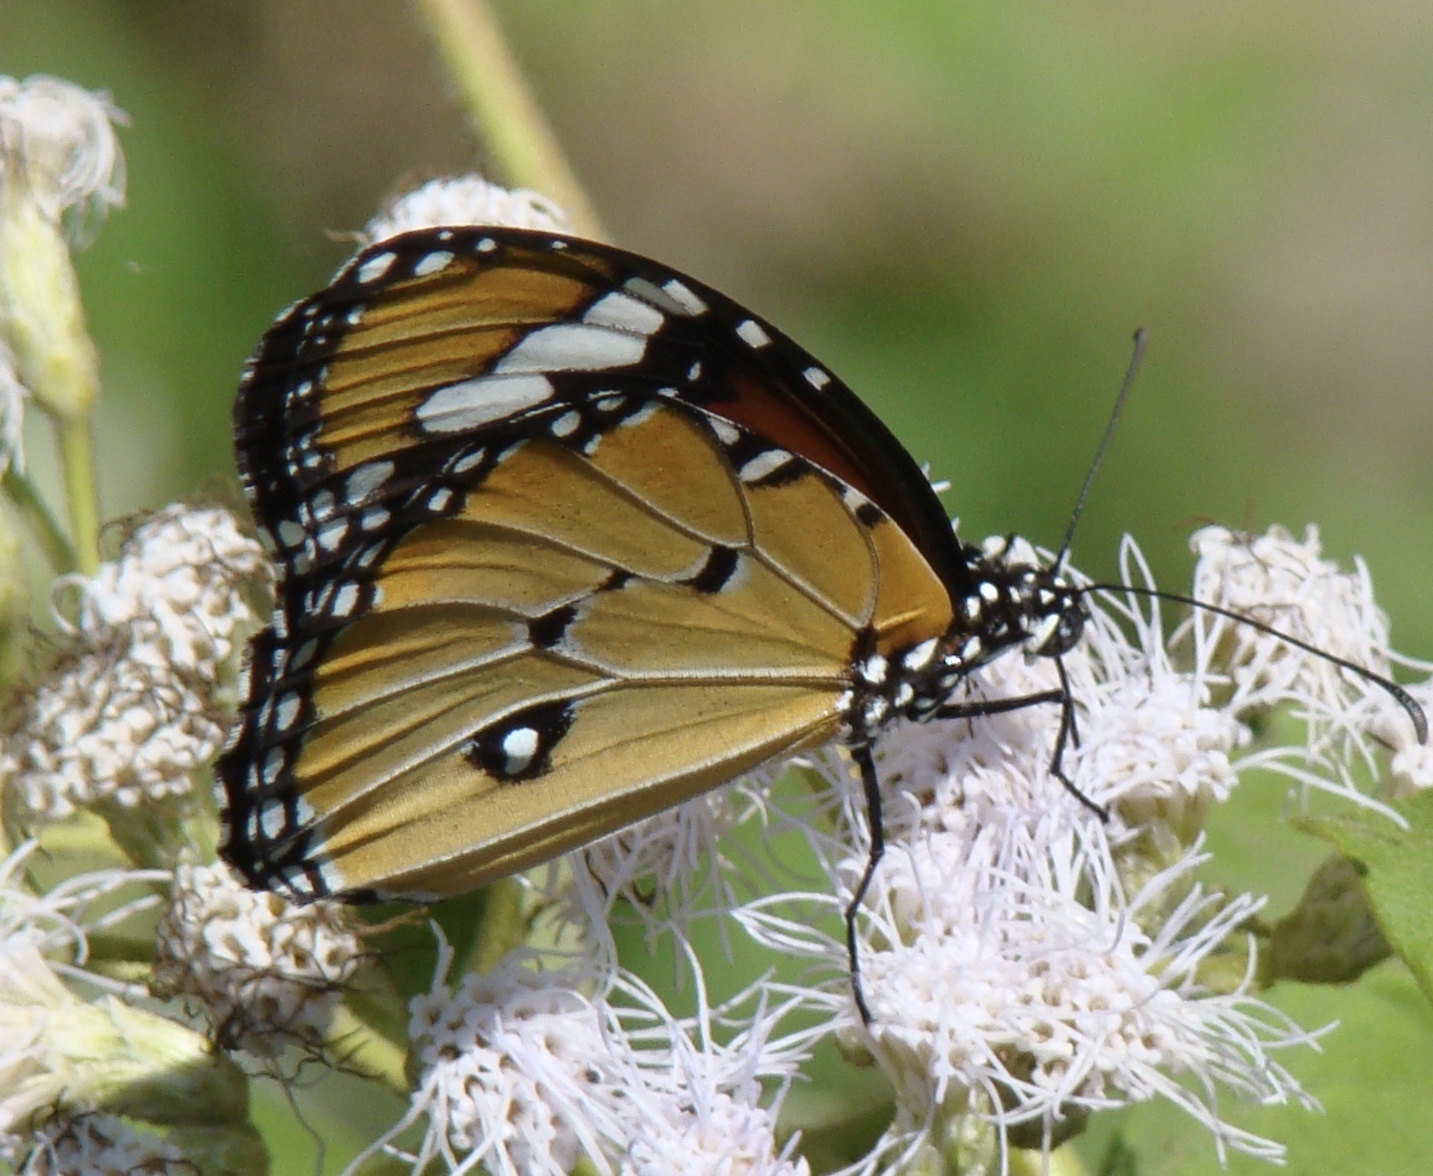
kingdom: Animalia
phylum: Arthropoda
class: Insecta
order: Lepidoptera
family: Nymphalidae
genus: Danaus
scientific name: Danaus chrysippus
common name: Plain tiger
